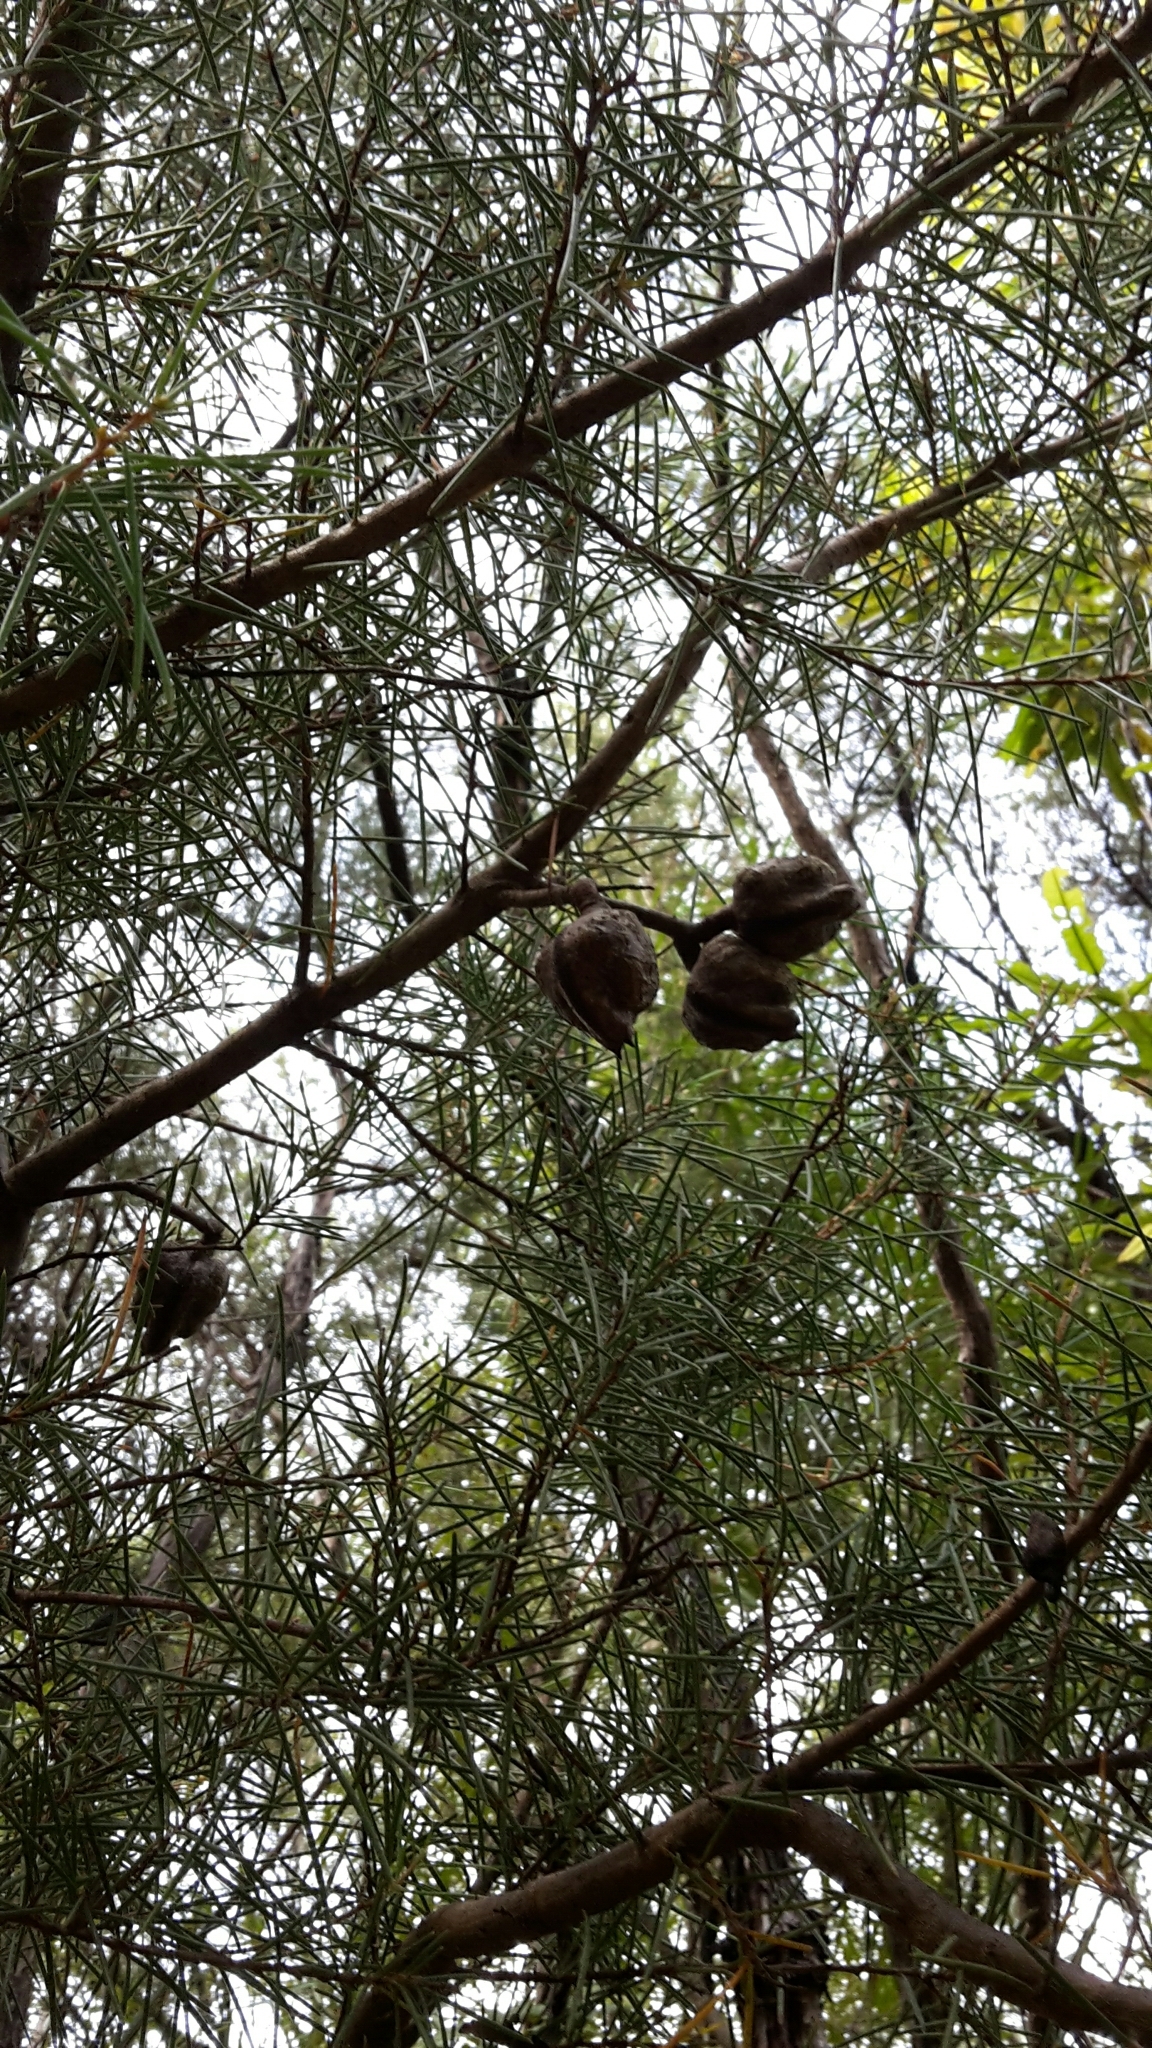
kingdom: Plantae
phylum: Tracheophyta
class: Magnoliopsida
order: Proteales
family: Proteaceae
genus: Hakea
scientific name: Hakea sericea
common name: Needle bush
